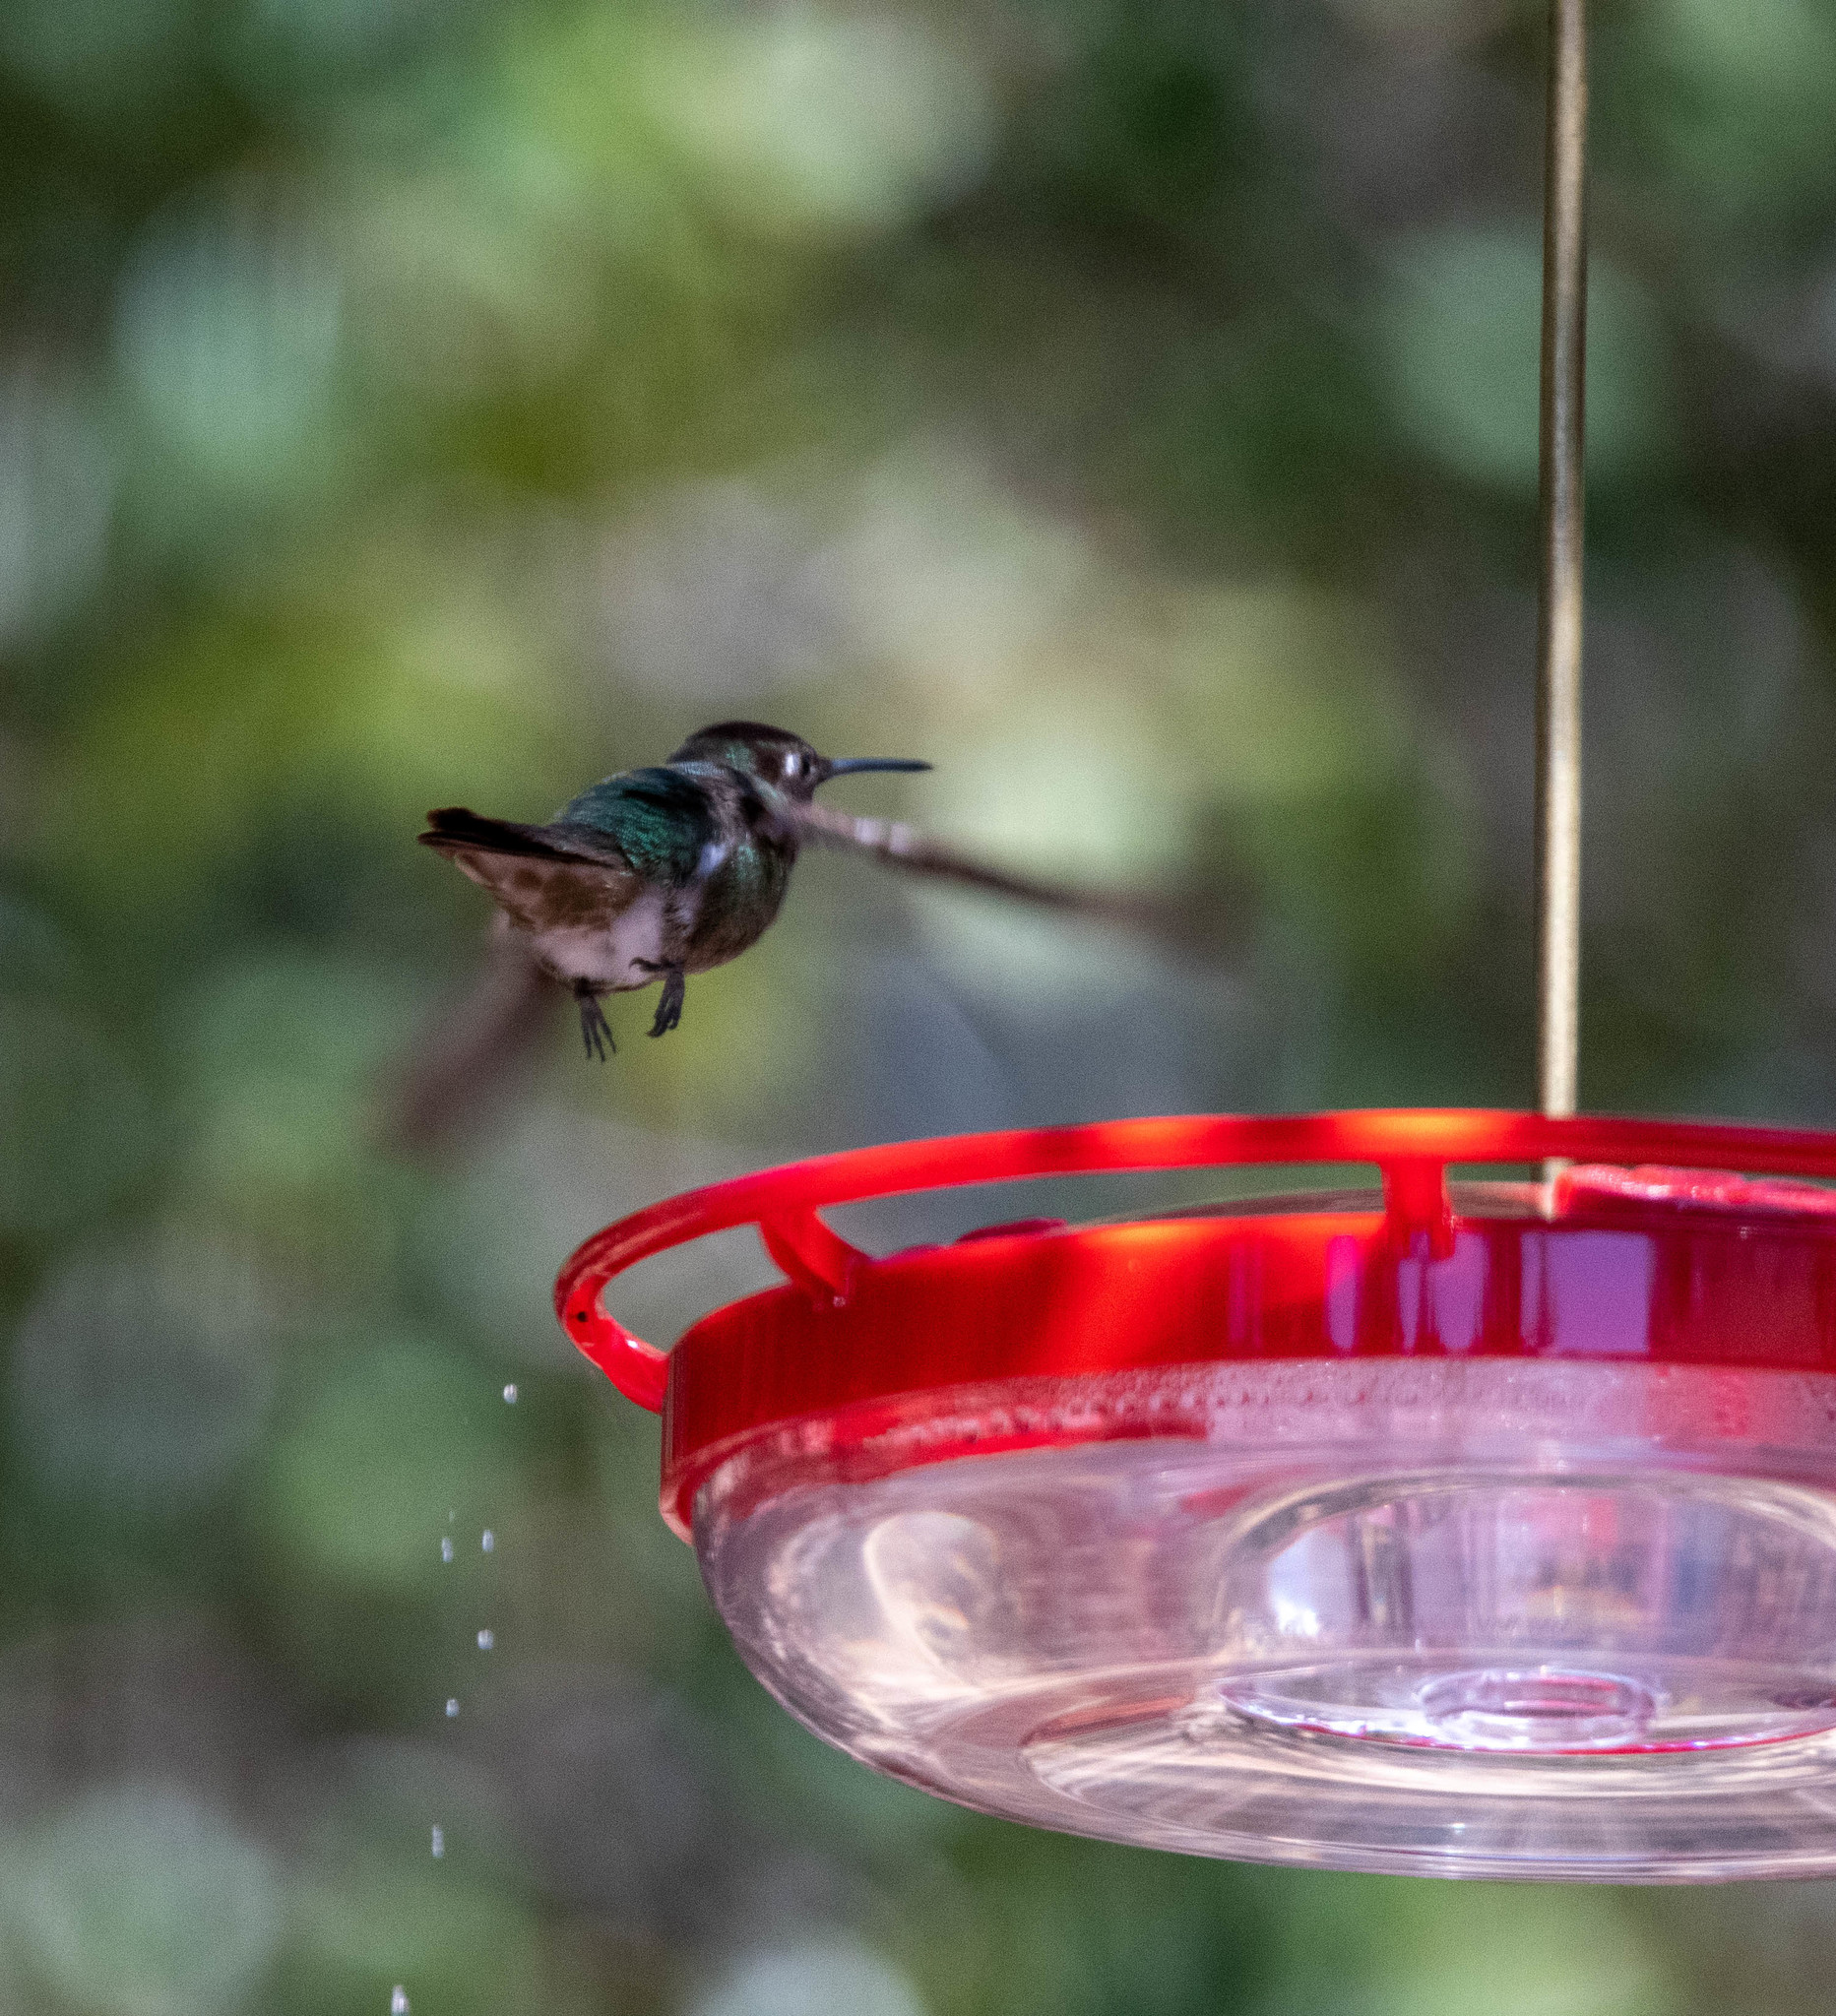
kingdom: Animalia
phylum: Chordata
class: Aves
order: Apodiformes
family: Trochilidae
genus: Calypte
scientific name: Calypte anna
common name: Anna's hummingbird
